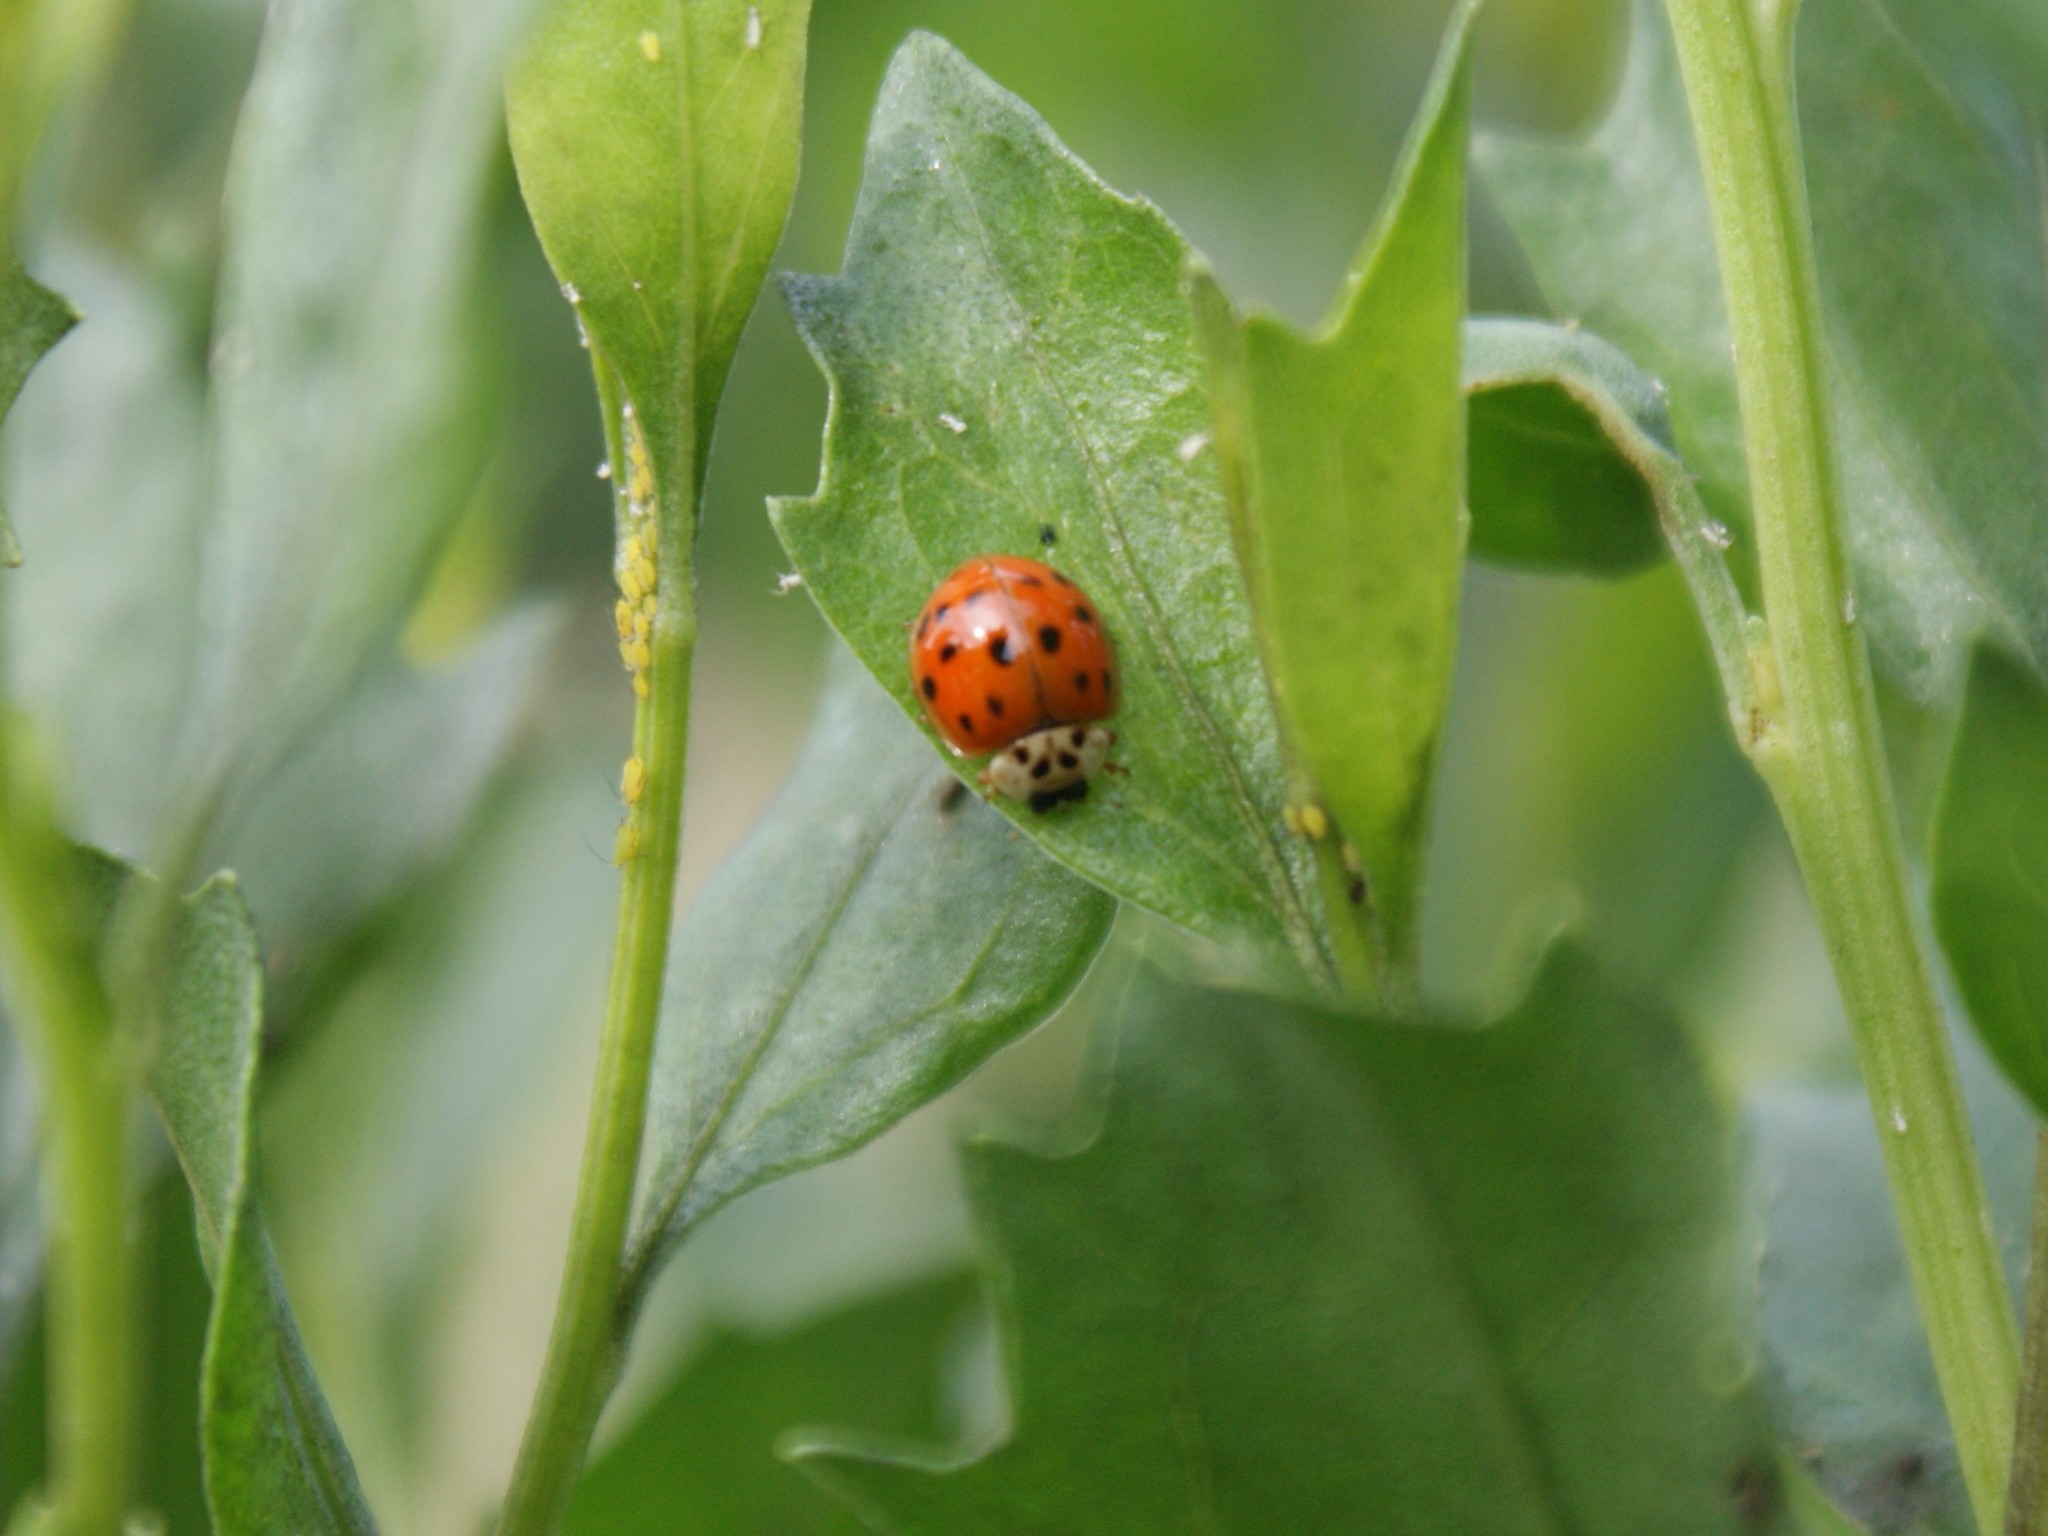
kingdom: Animalia
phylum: Arthropoda
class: Insecta
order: Coleoptera
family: Coccinellidae
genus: Harmonia
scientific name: Harmonia axyridis
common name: Harlequin ladybird
